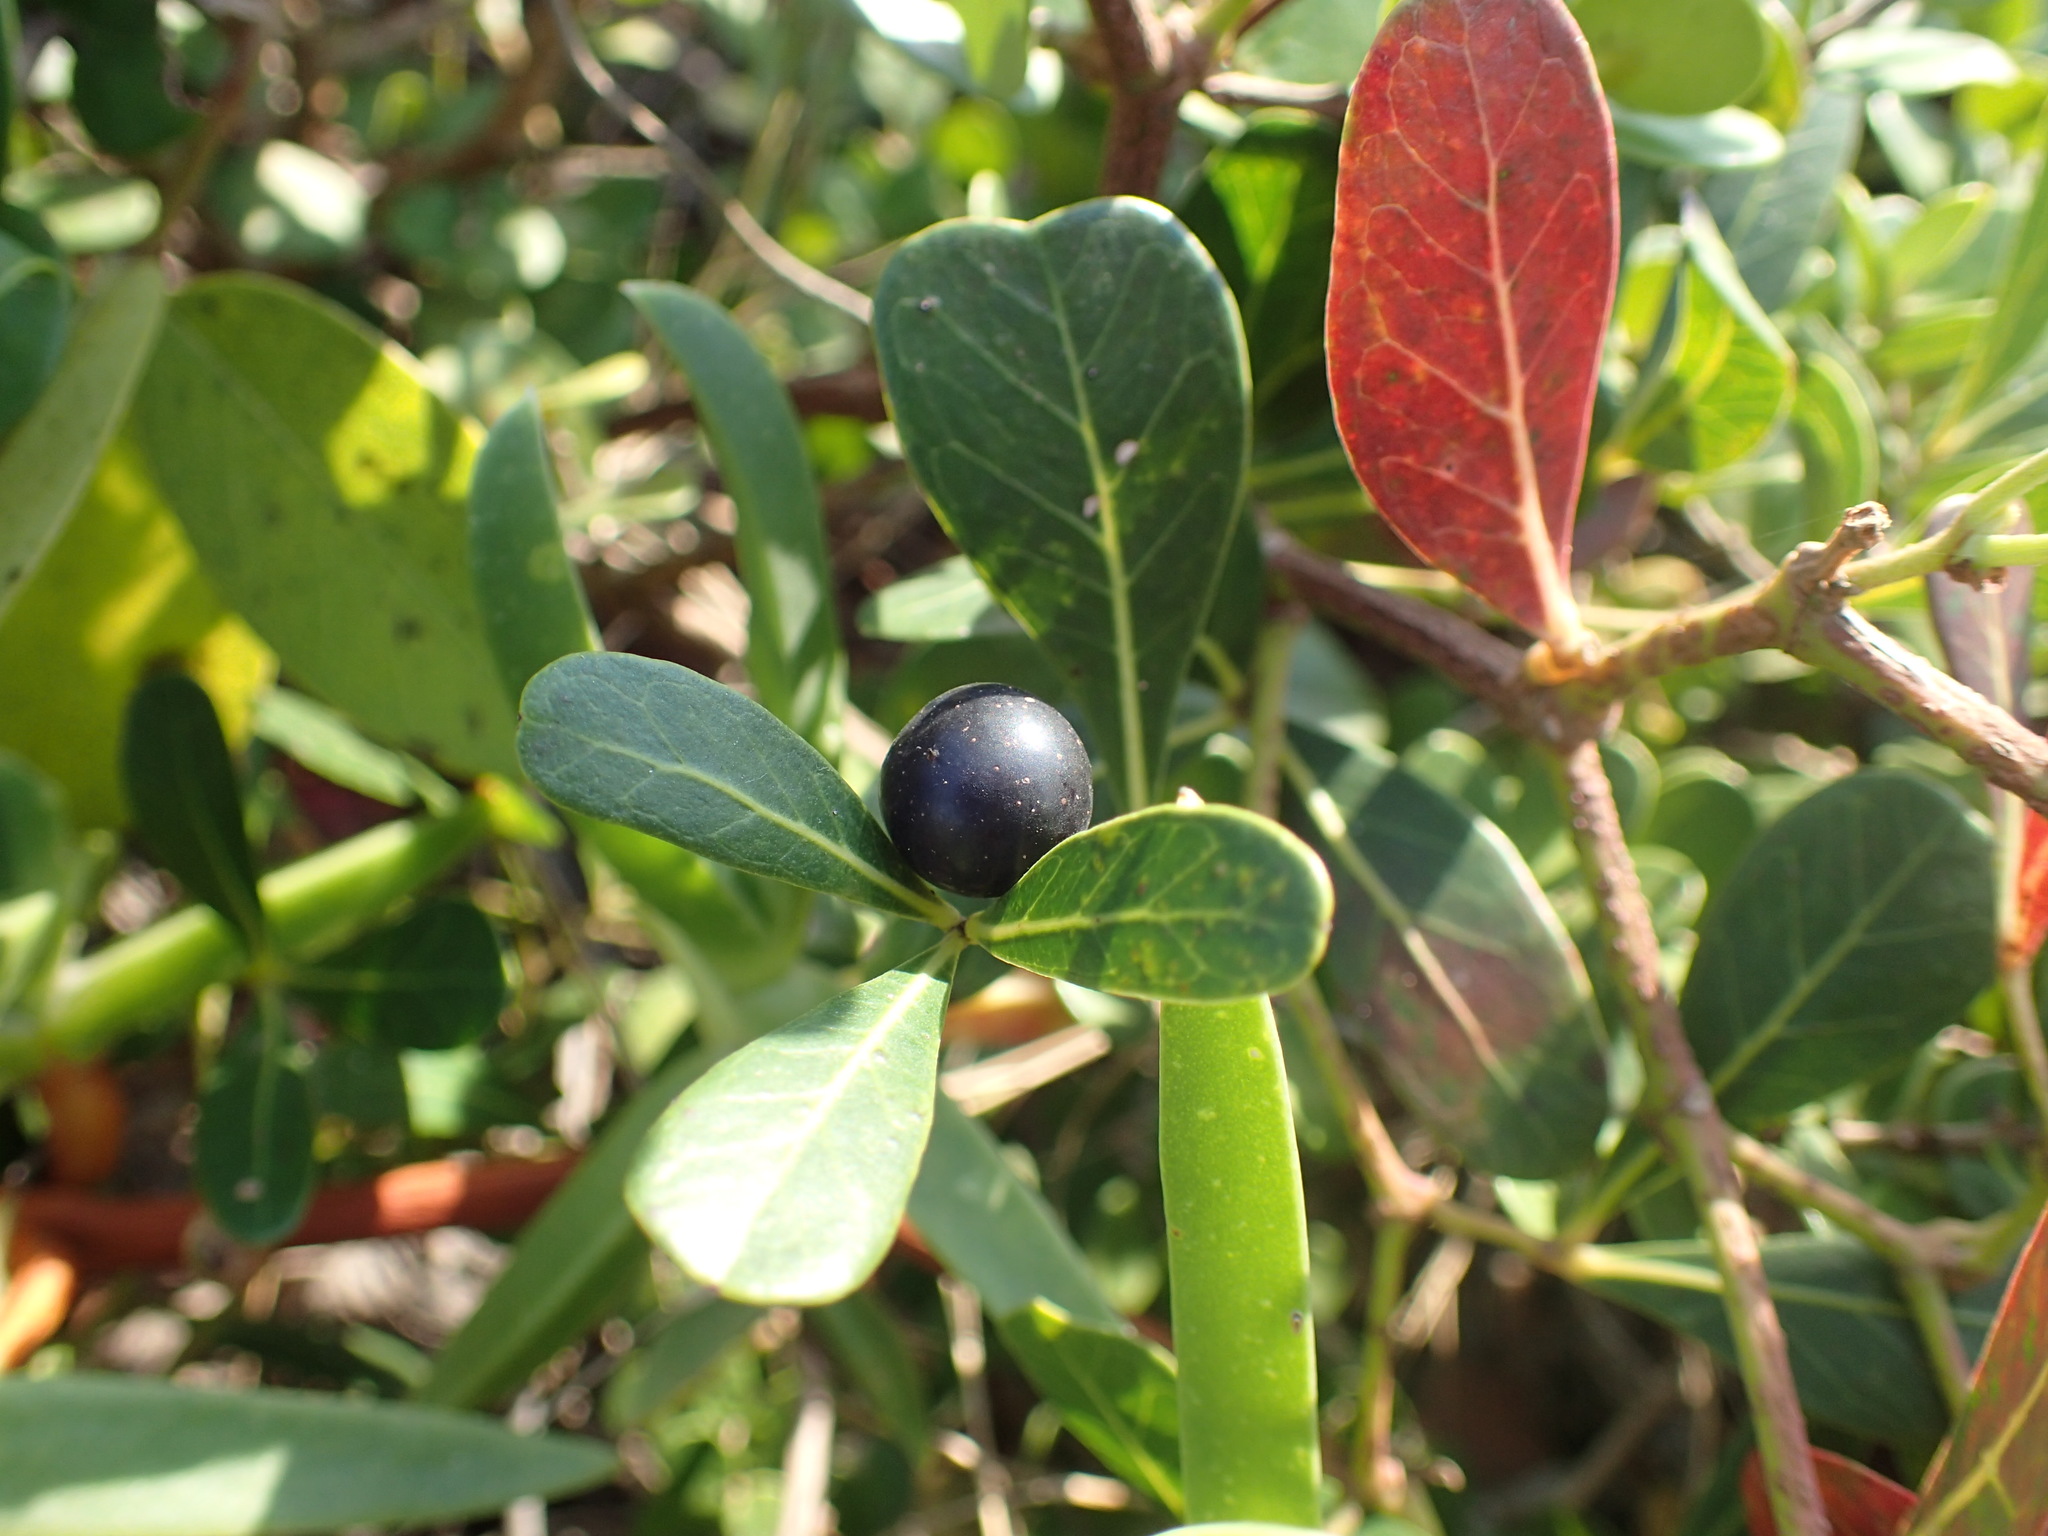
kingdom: Plantae
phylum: Tracheophyta
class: Magnoliopsida
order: Vitales
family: Vitaceae
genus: Rhoicissus
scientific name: Rhoicissus digitata
